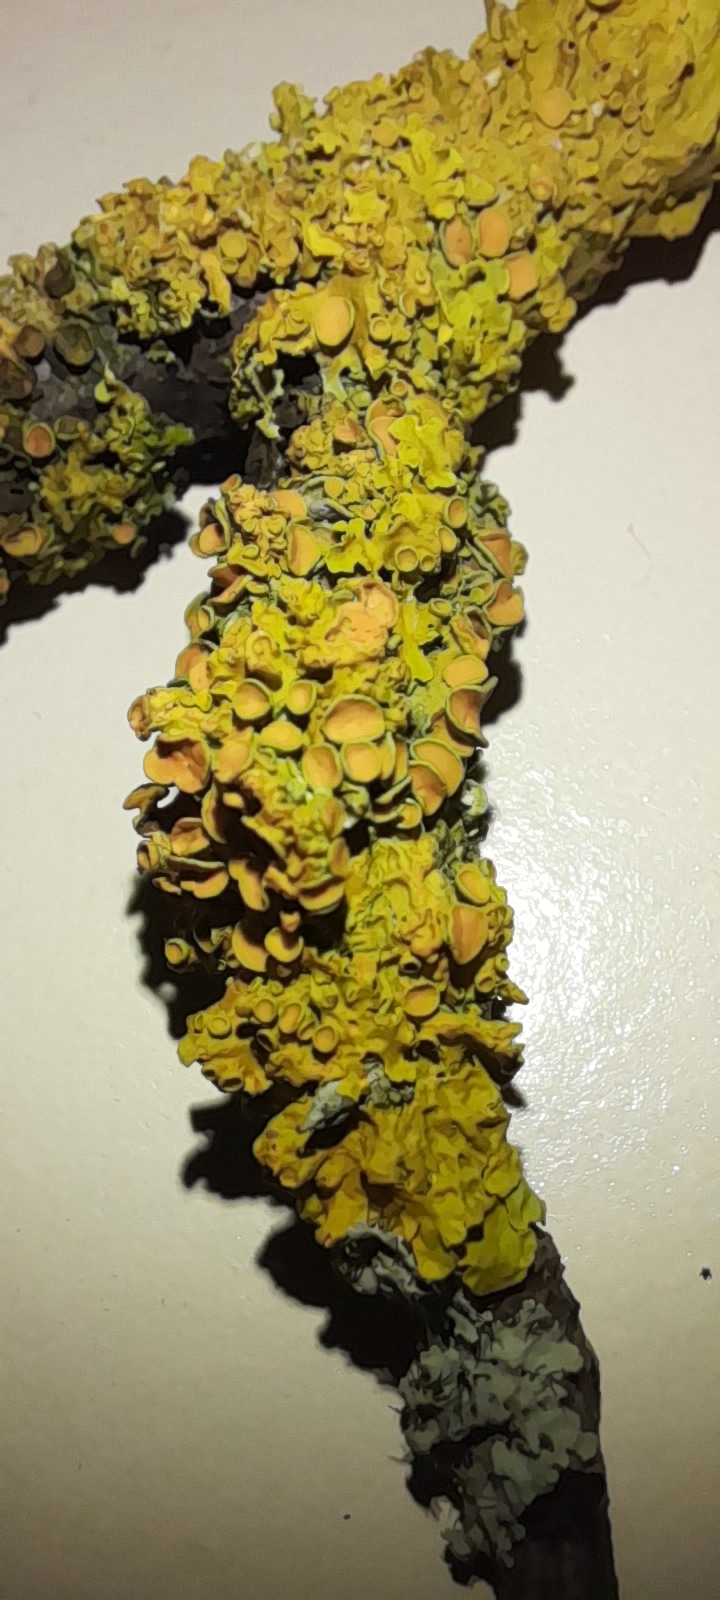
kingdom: Fungi
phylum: Ascomycota
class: Lecanoromycetes
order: Teloschistales
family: Teloschistaceae
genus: Xanthoria
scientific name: Xanthoria parietina
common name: Common orange lichen
